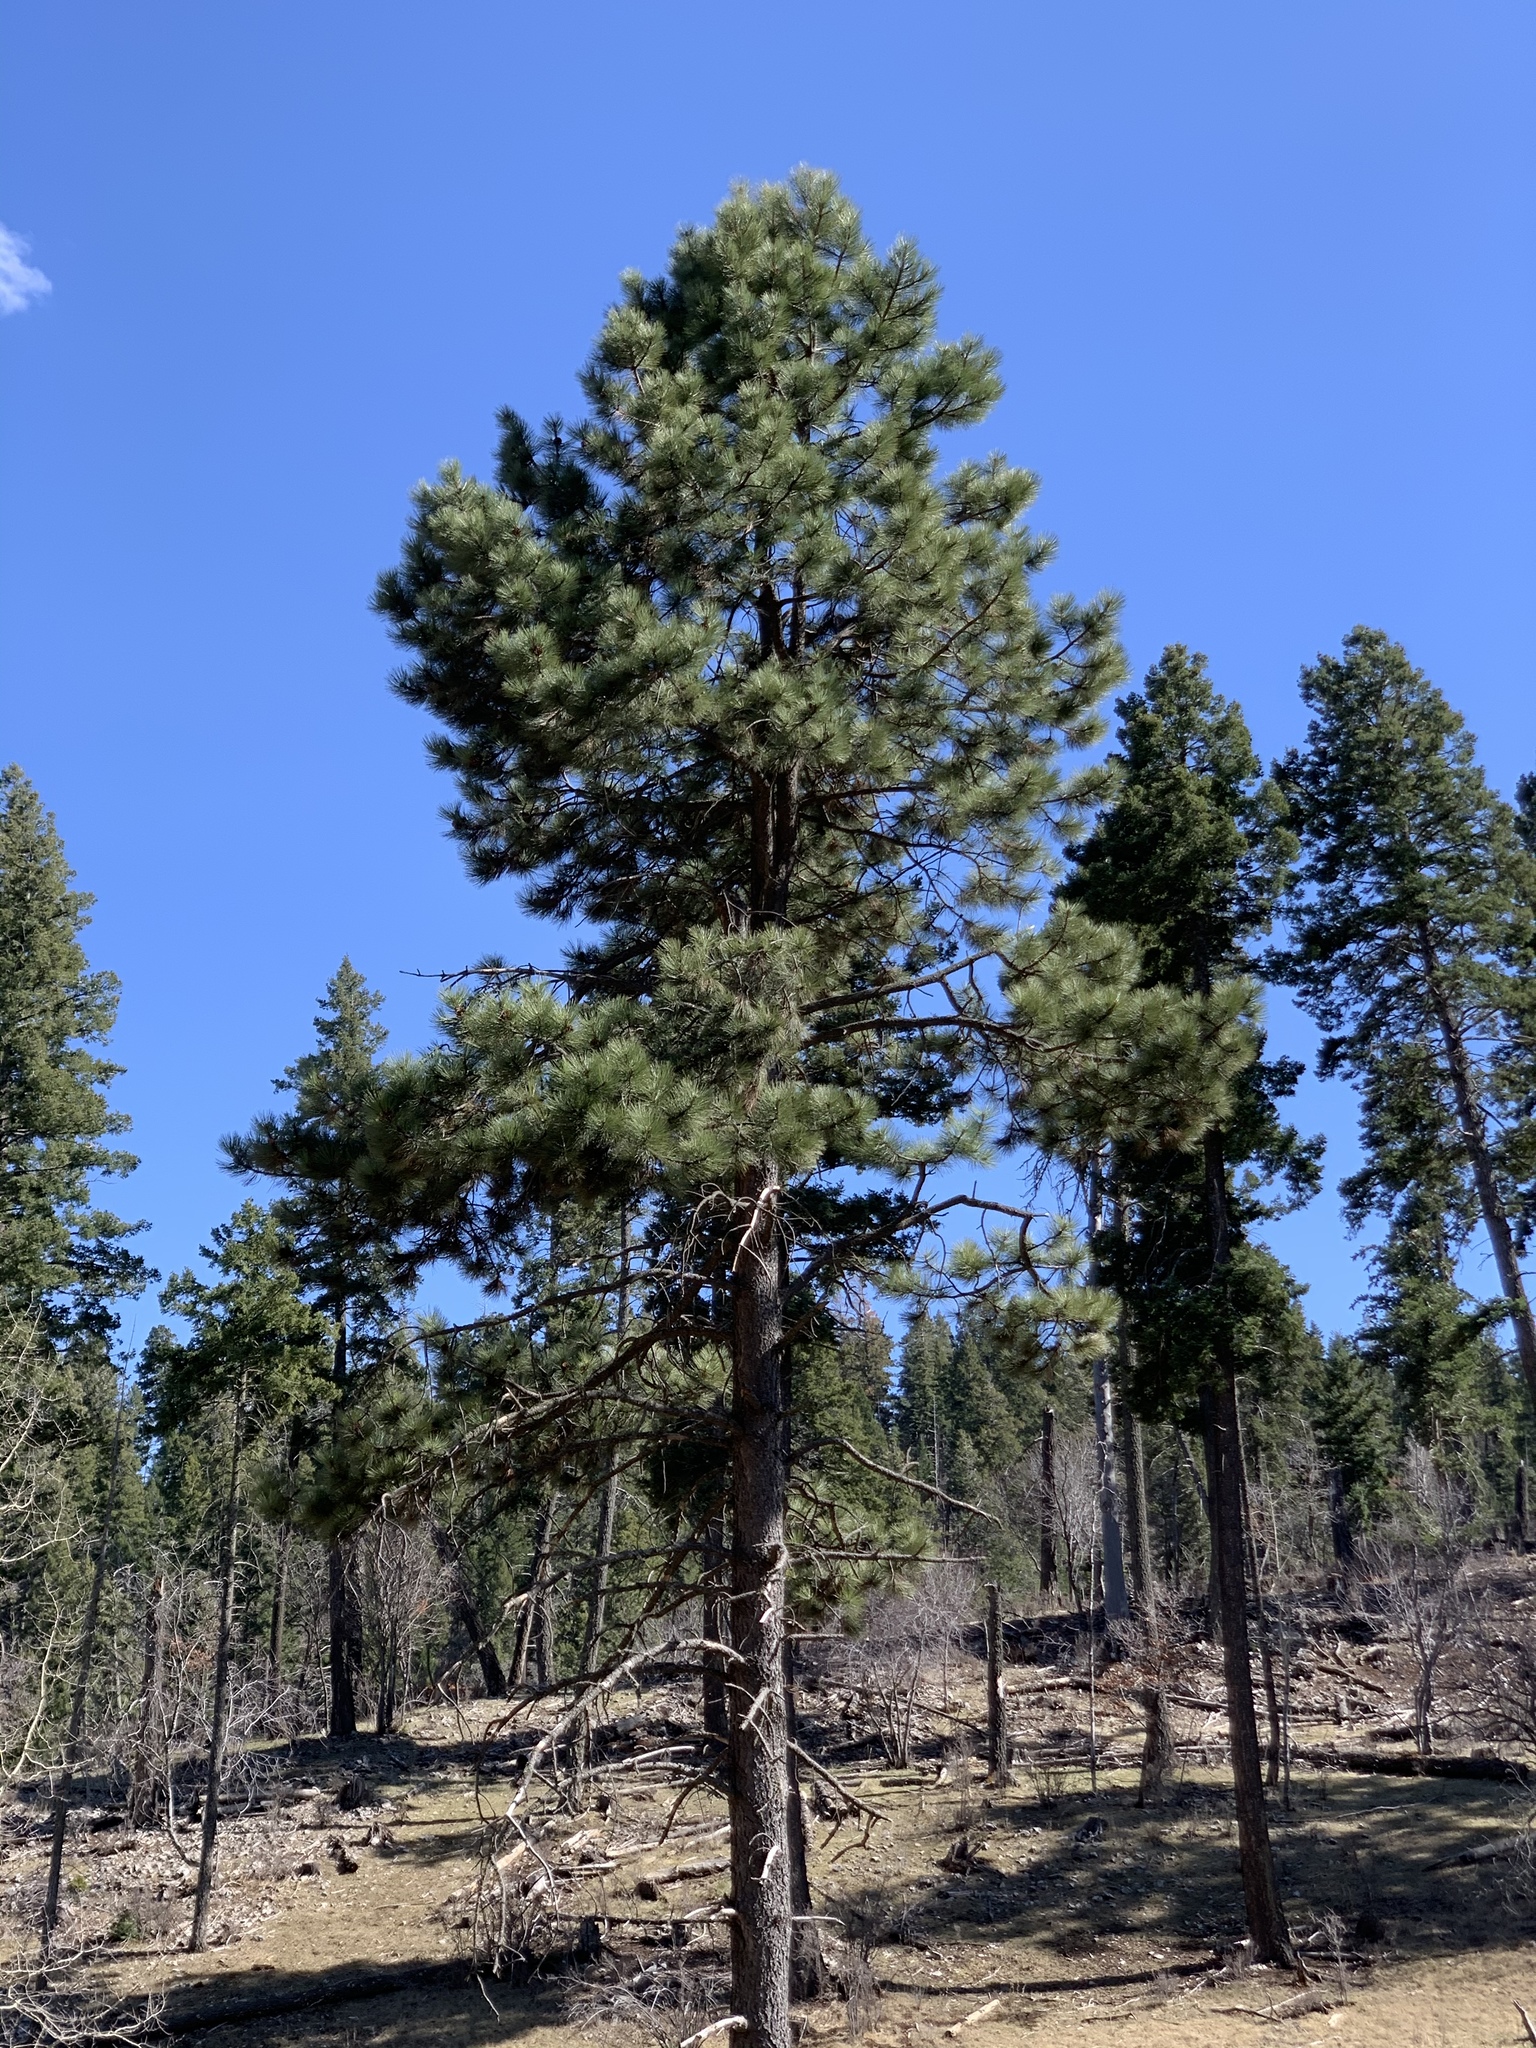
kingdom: Plantae
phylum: Tracheophyta
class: Pinopsida
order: Pinales
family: Pinaceae
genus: Pinus
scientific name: Pinus ponderosa
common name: Western yellow-pine
